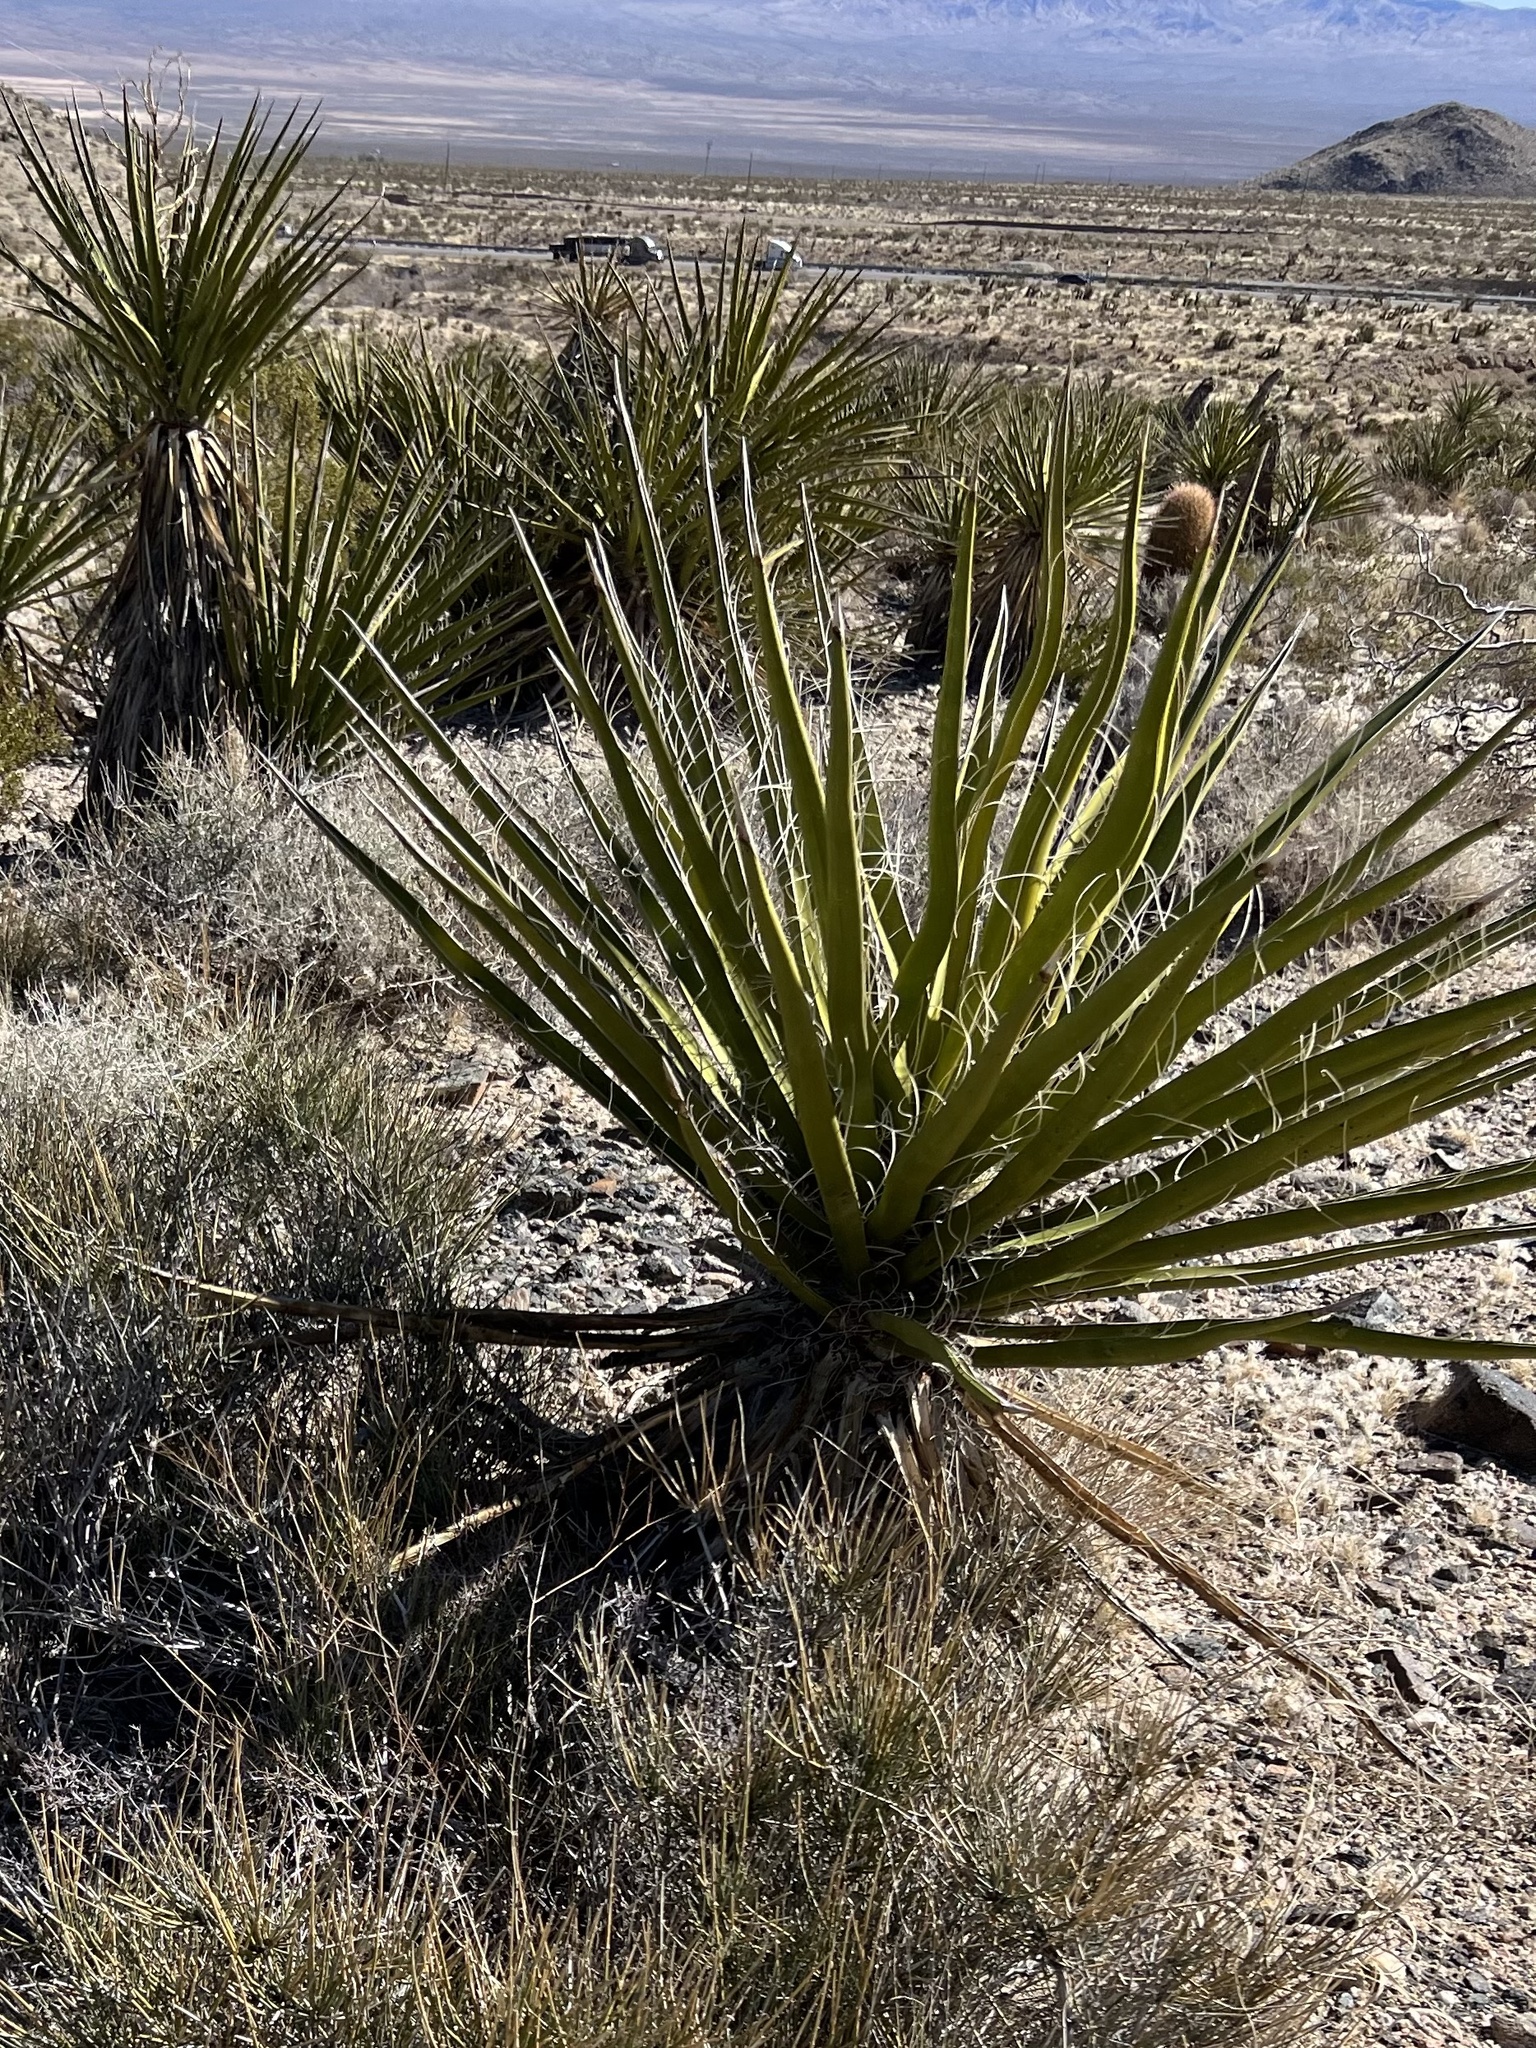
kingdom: Plantae
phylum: Tracheophyta
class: Liliopsida
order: Asparagales
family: Asparagaceae
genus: Yucca
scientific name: Yucca schidigera
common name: Mojave yucca
